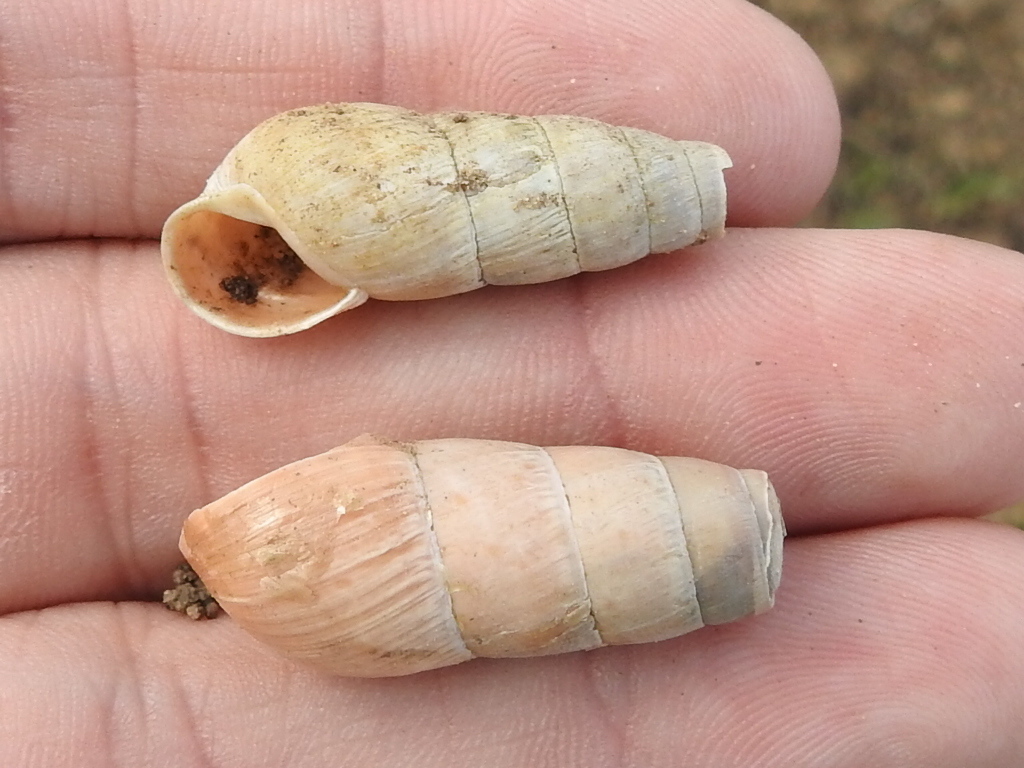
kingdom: Animalia
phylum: Mollusca
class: Gastropoda
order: Stylommatophora
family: Achatinidae
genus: Rumina
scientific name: Rumina decollata
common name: Decollate snail
